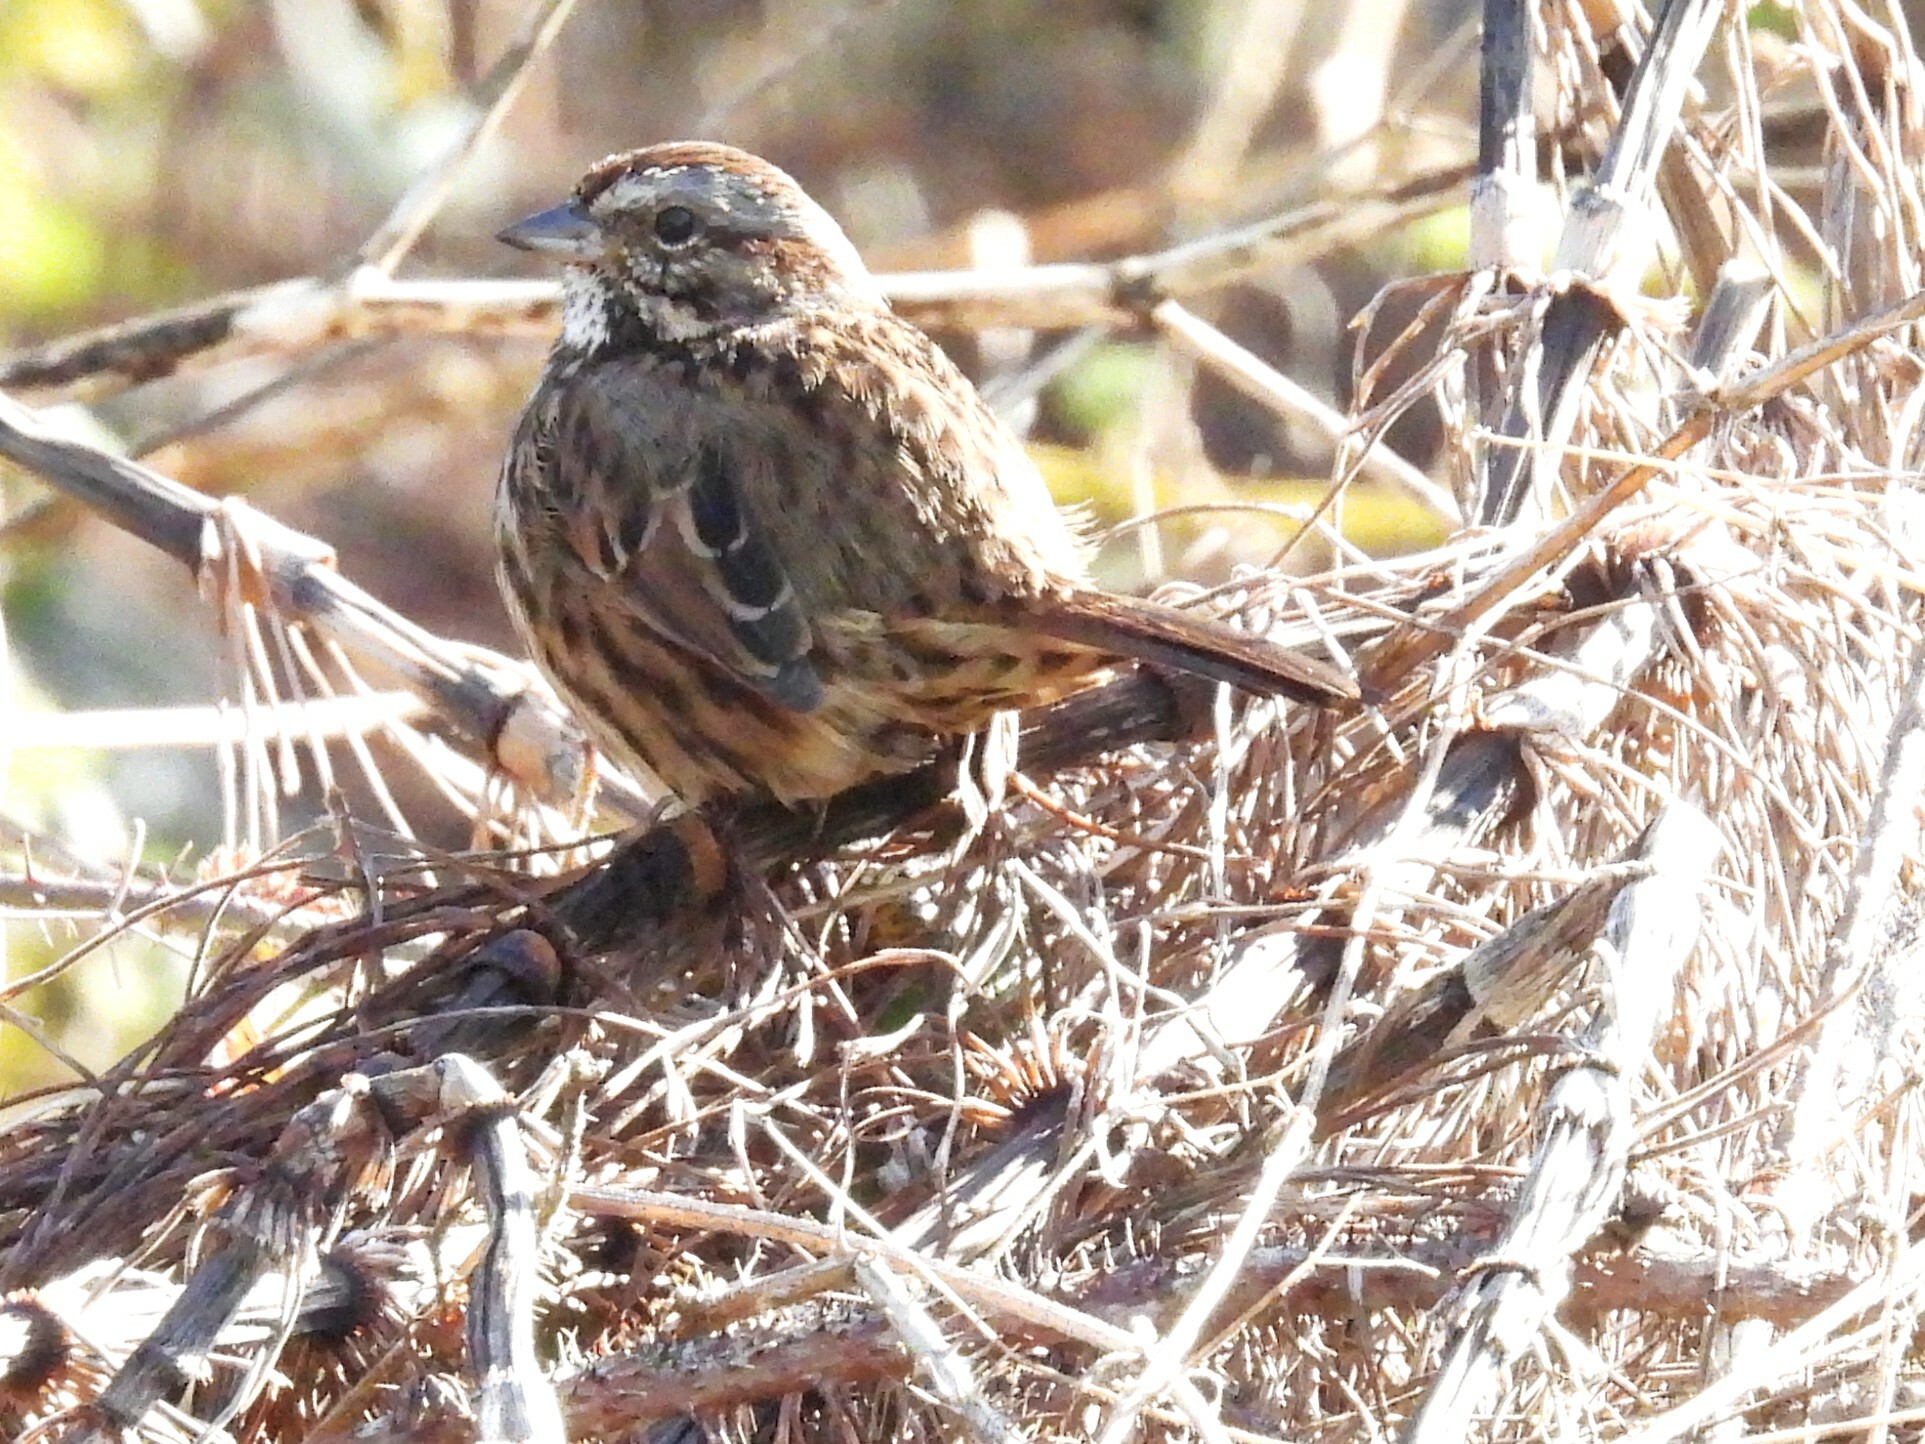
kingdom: Animalia
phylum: Chordata
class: Aves
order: Passeriformes
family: Passerellidae
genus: Melospiza
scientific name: Melospiza melodia
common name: Song sparrow
